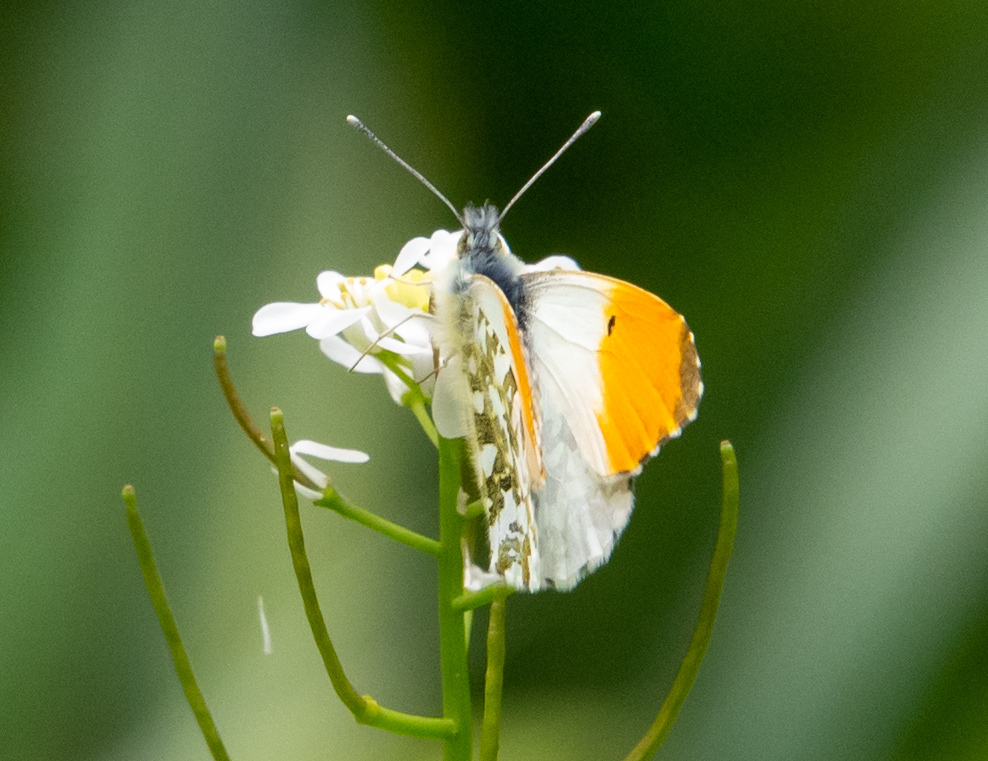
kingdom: Animalia
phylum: Arthropoda
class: Insecta
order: Lepidoptera
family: Pieridae
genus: Anthocharis
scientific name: Anthocharis cardamines
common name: Orange-tip
